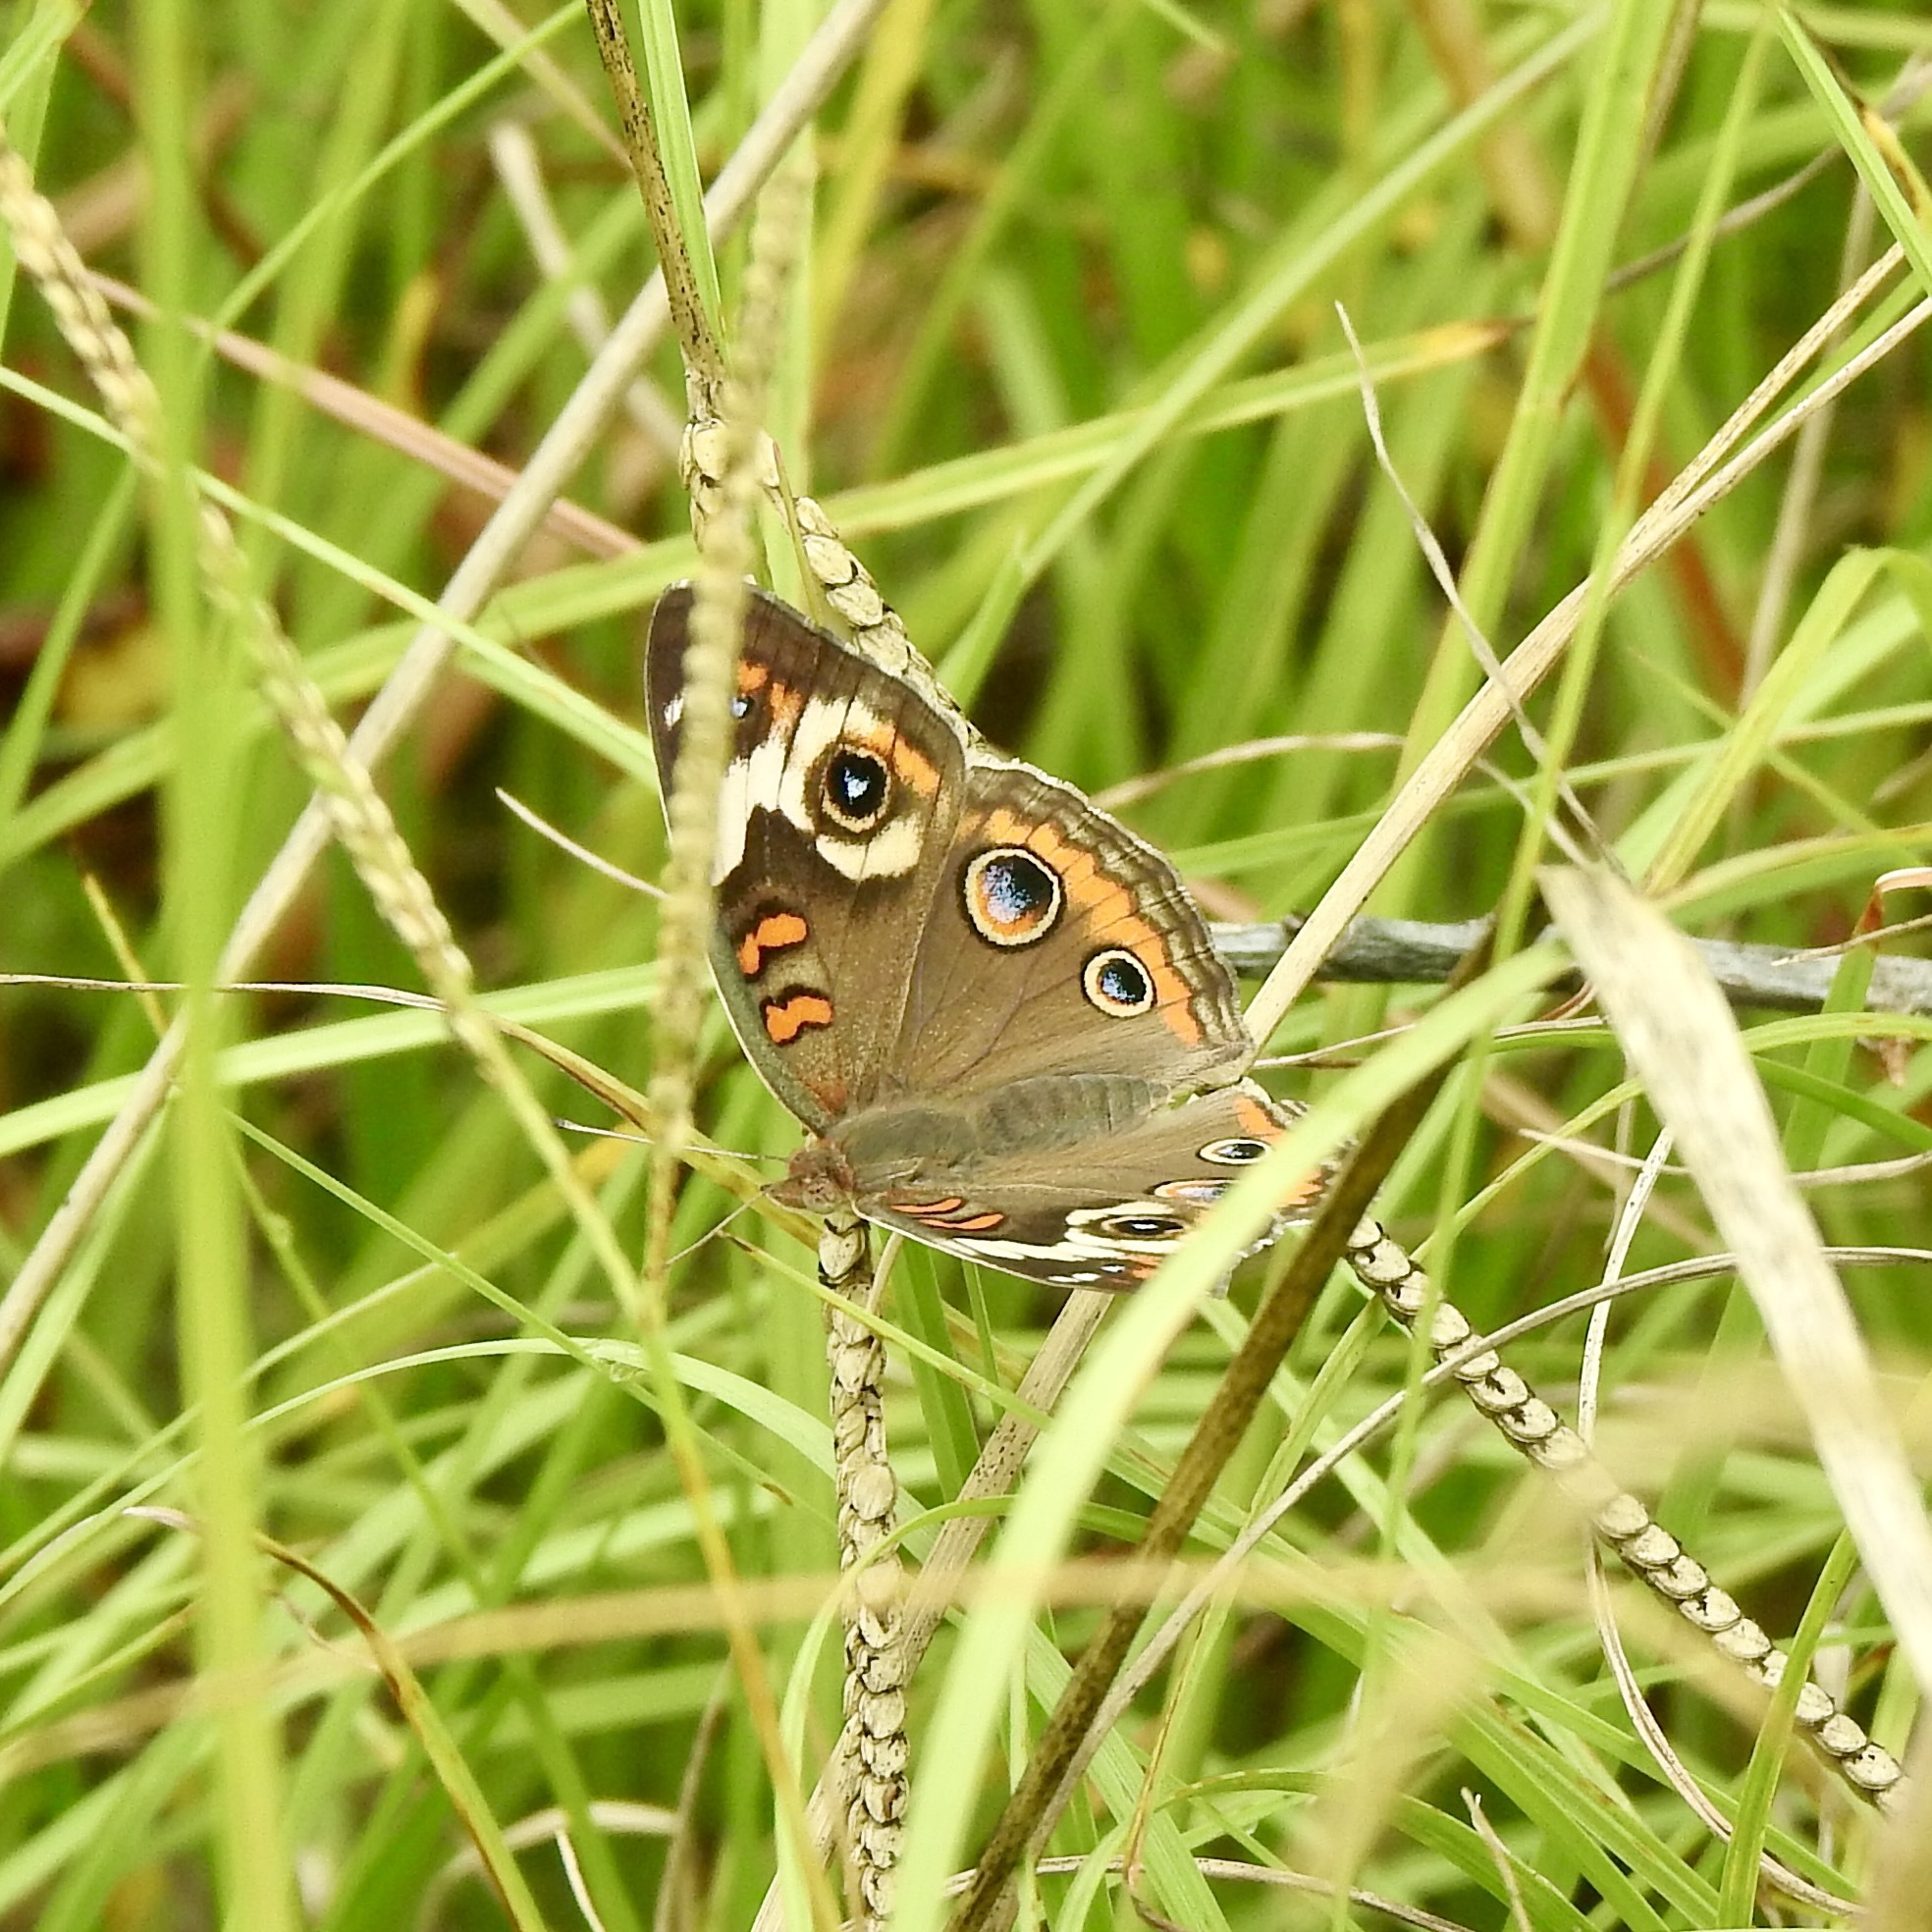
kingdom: Animalia
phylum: Arthropoda
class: Insecta
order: Lepidoptera
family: Nymphalidae
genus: Junonia
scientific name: Junonia coenia
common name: Common buckeye
